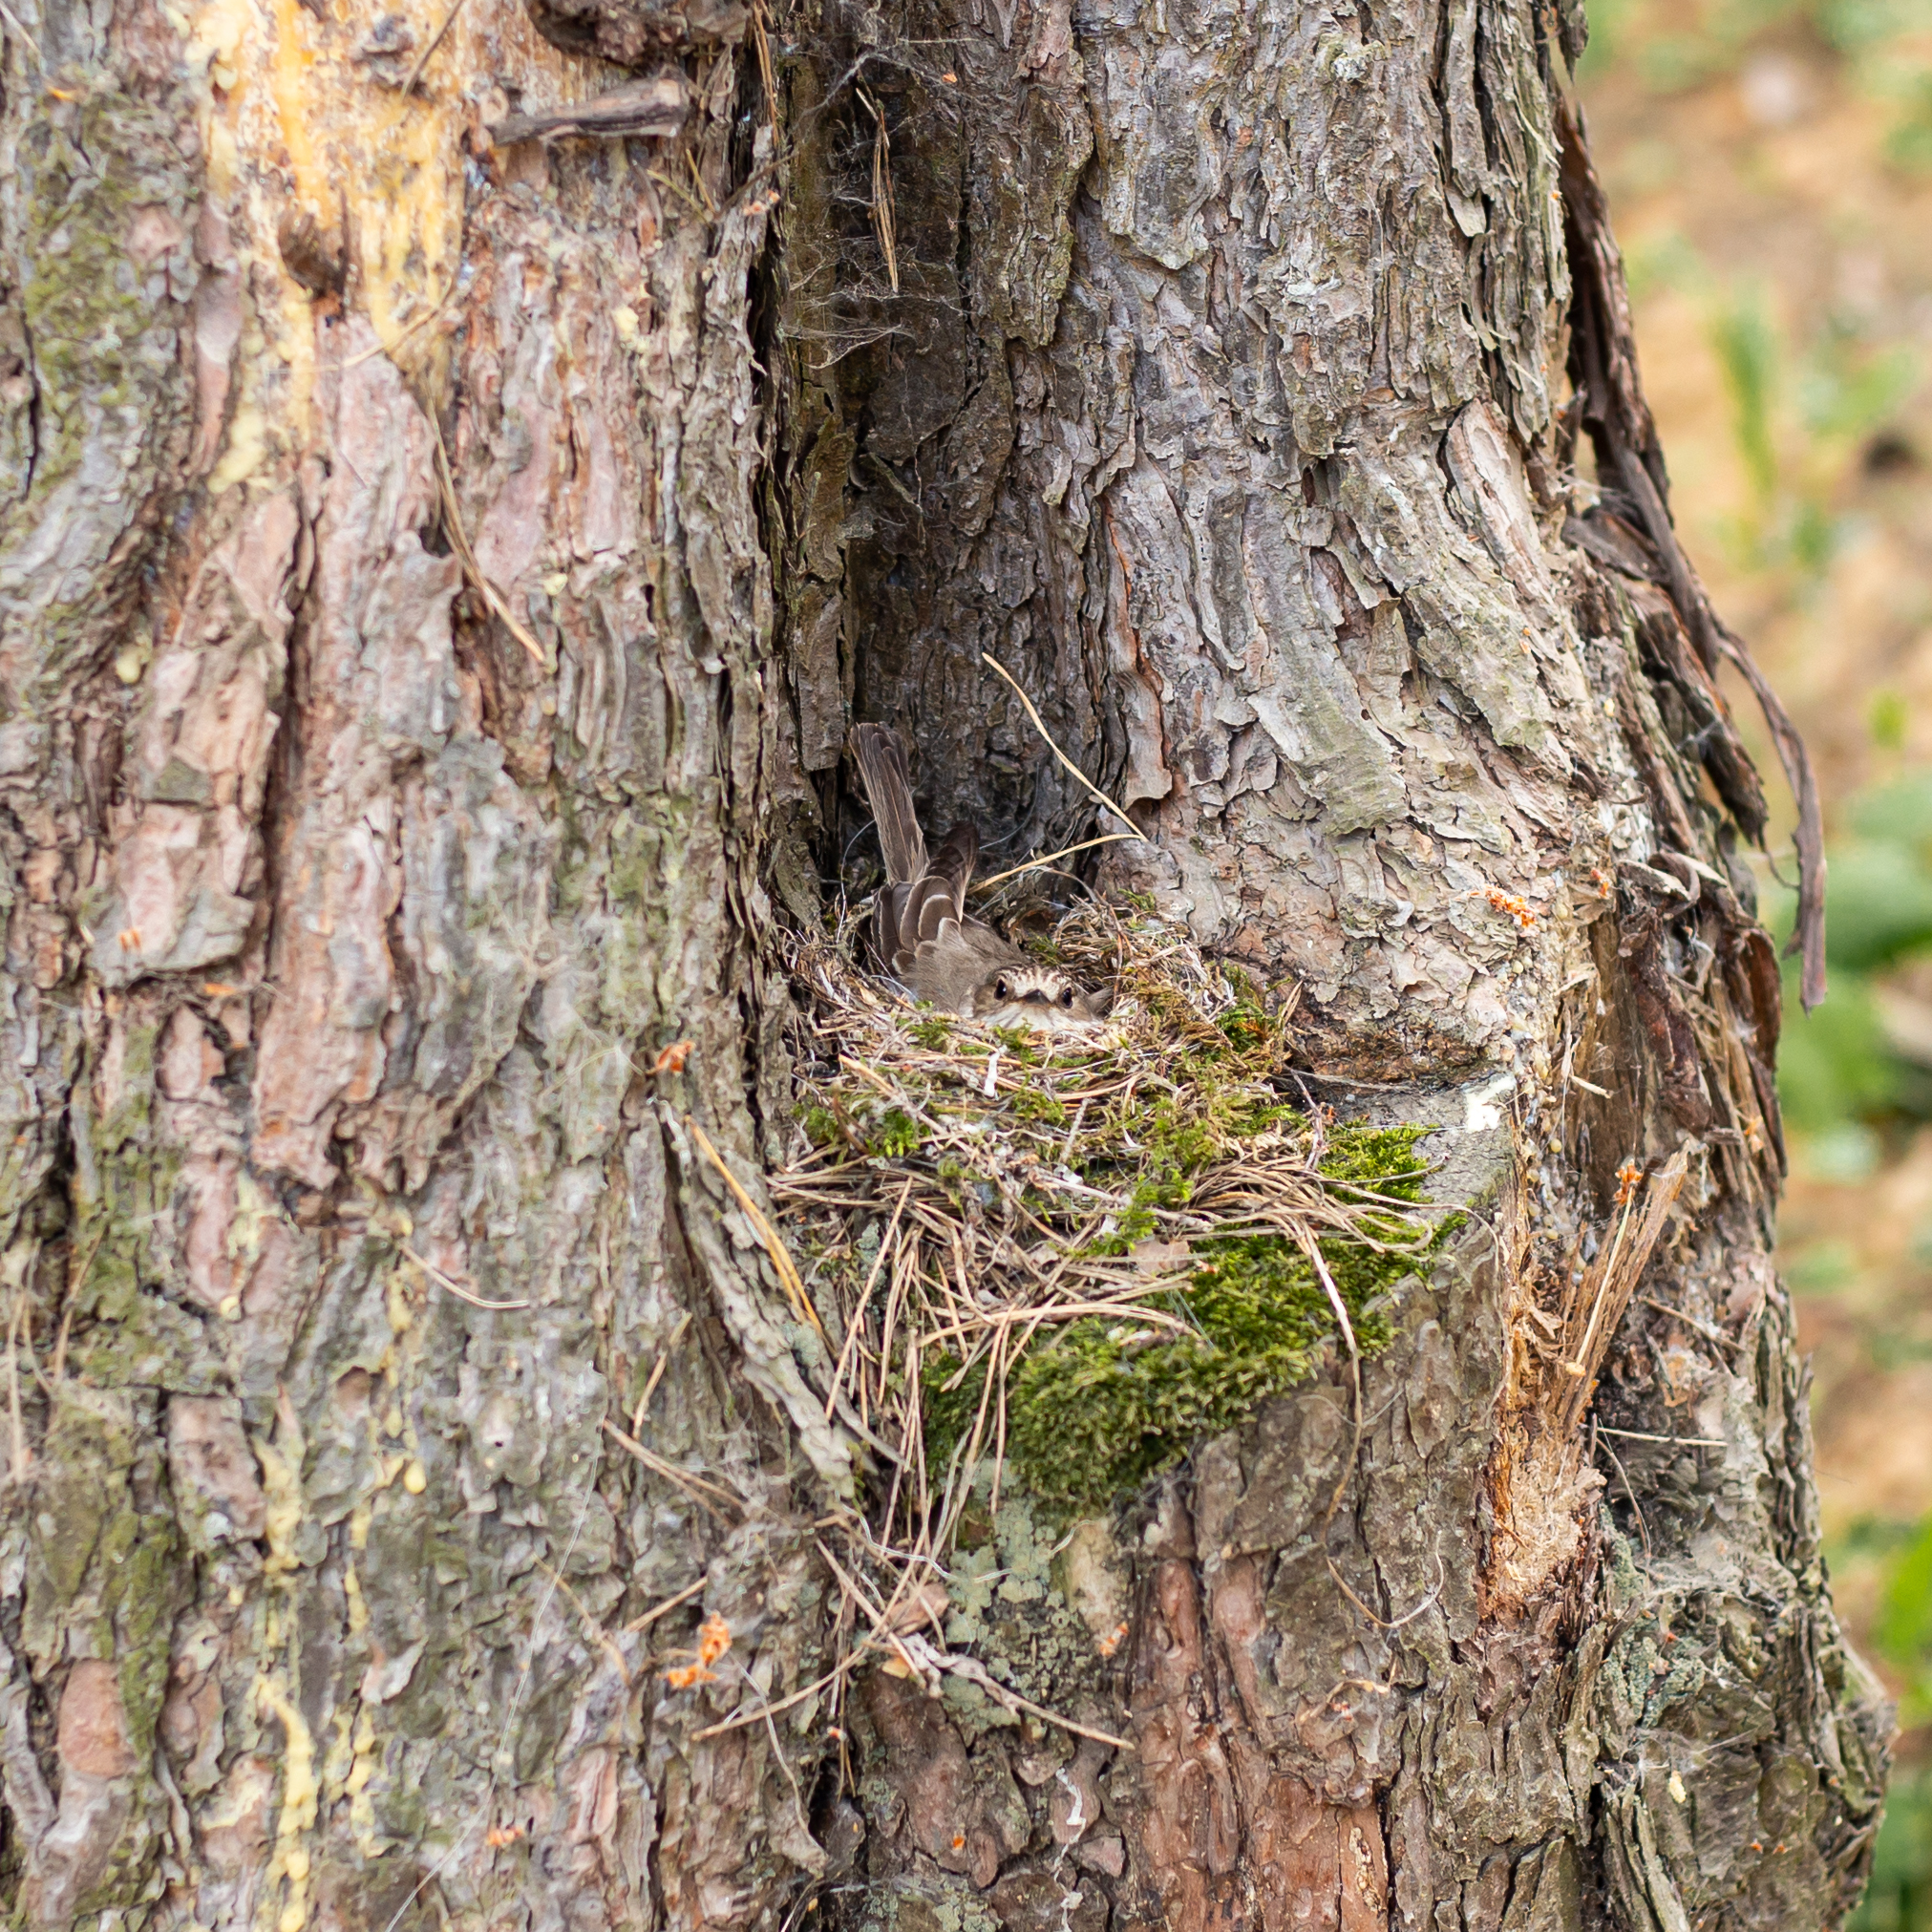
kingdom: Animalia
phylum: Chordata
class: Aves
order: Passeriformes
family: Muscicapidae
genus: Muscicapa
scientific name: Muscicapa striata
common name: Spotted flycatcher
